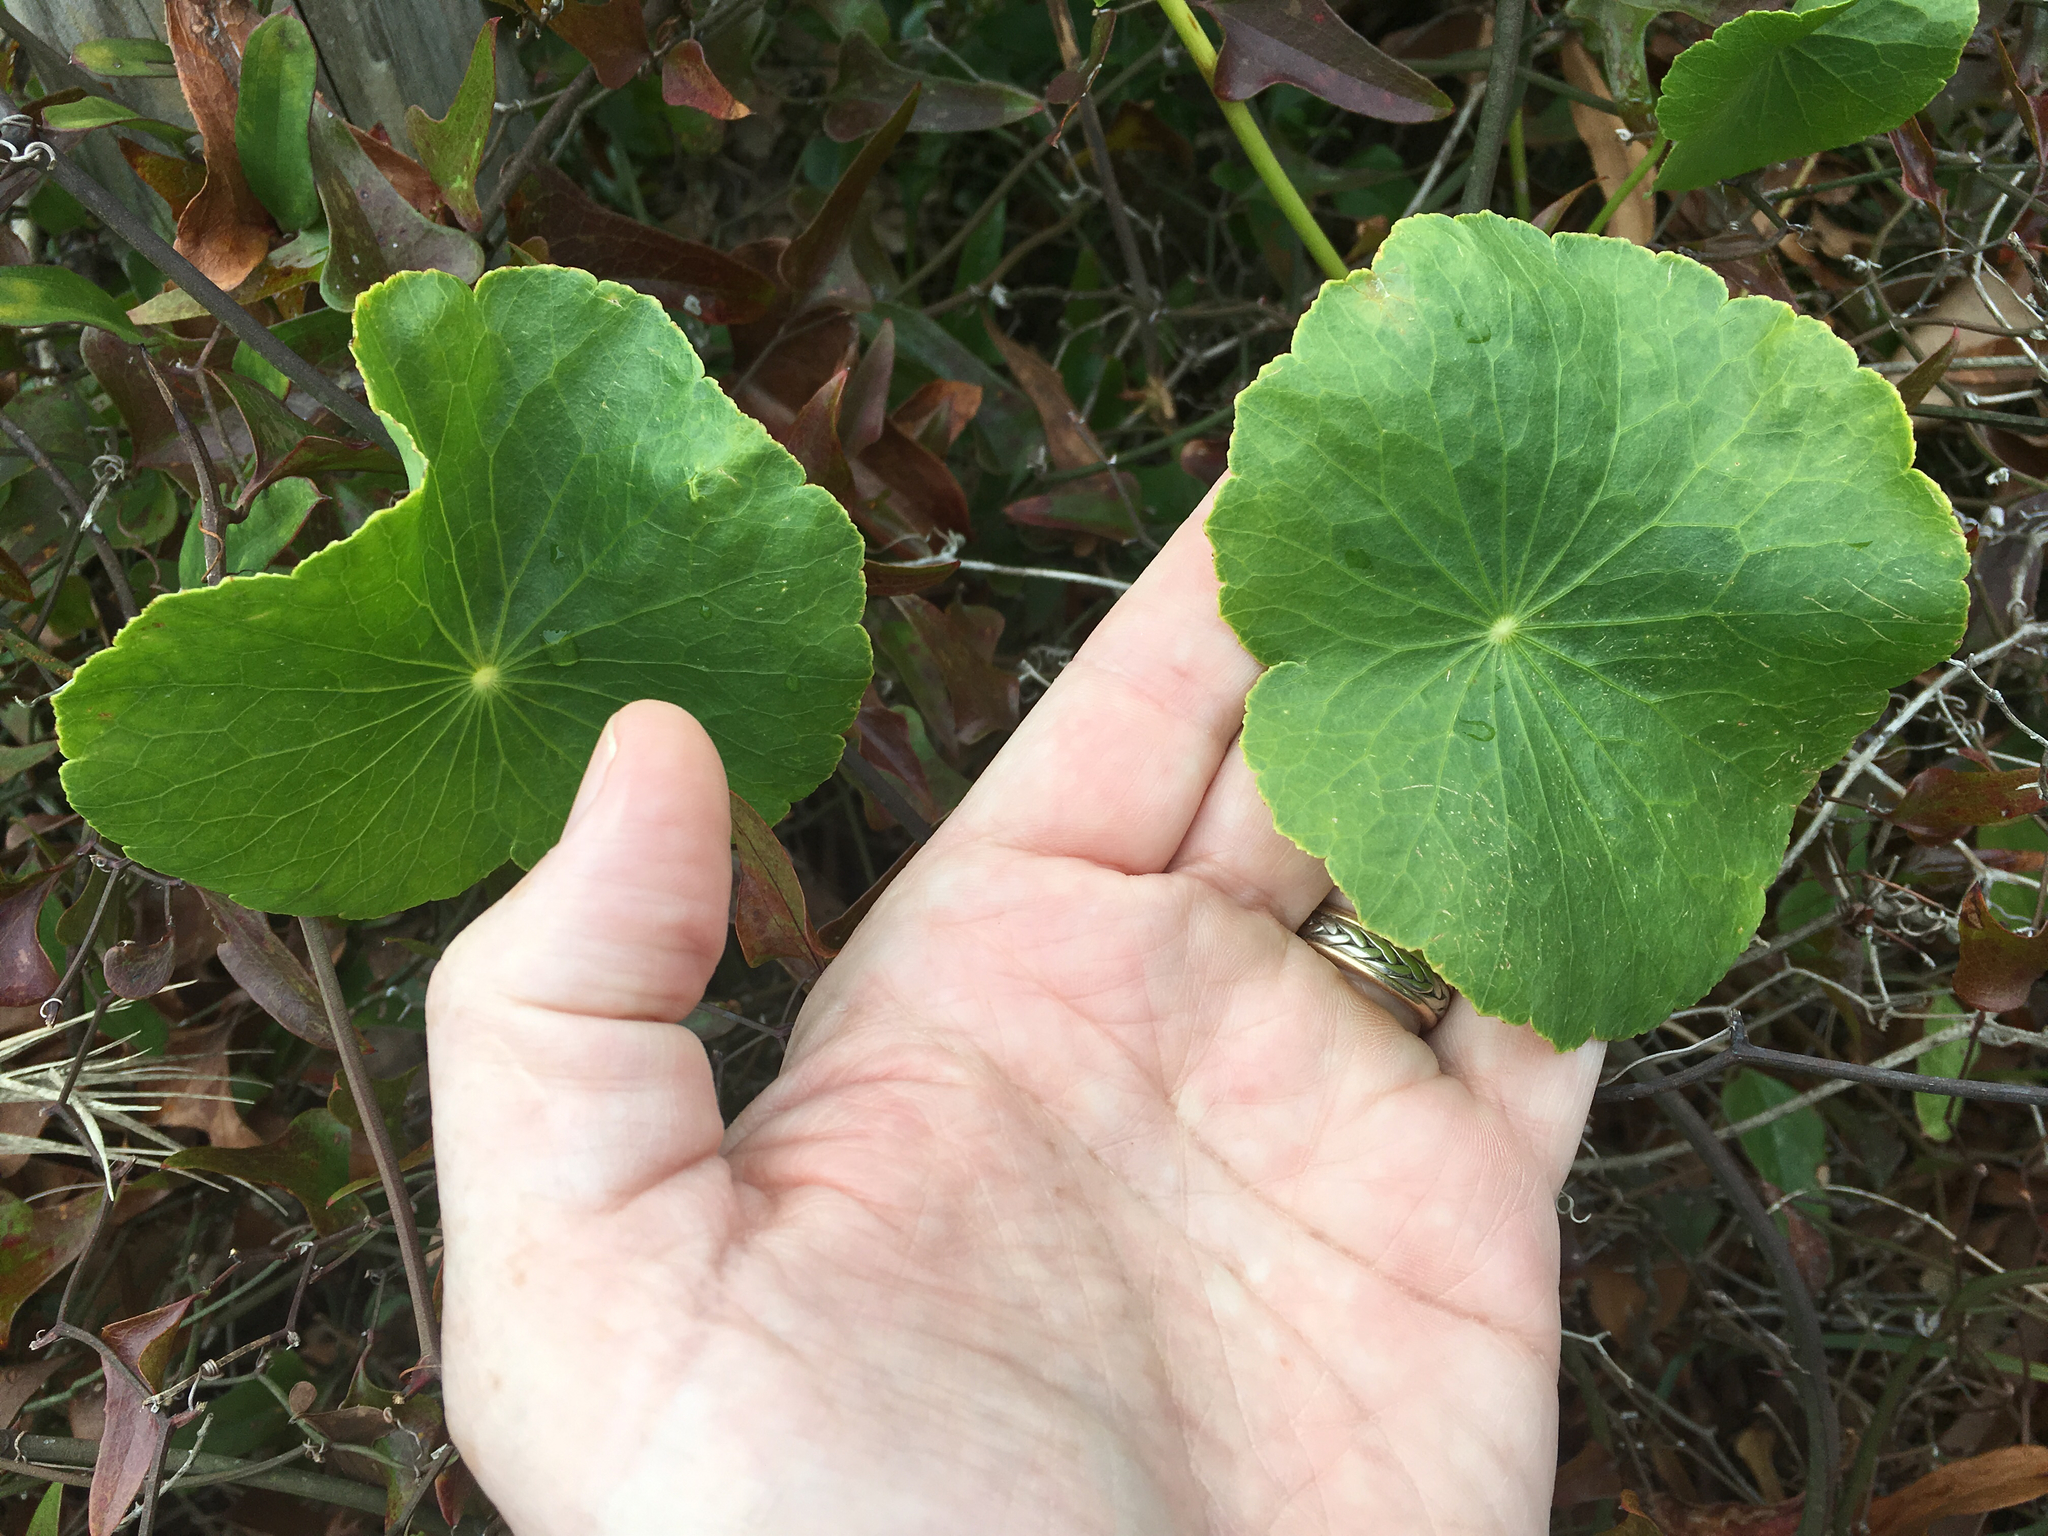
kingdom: Plantae
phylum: Tracheophyta
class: Magnoliopsida
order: Apiales
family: Araliaceae
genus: Hydrocotyle
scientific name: Hydrocotyle bonariensis
